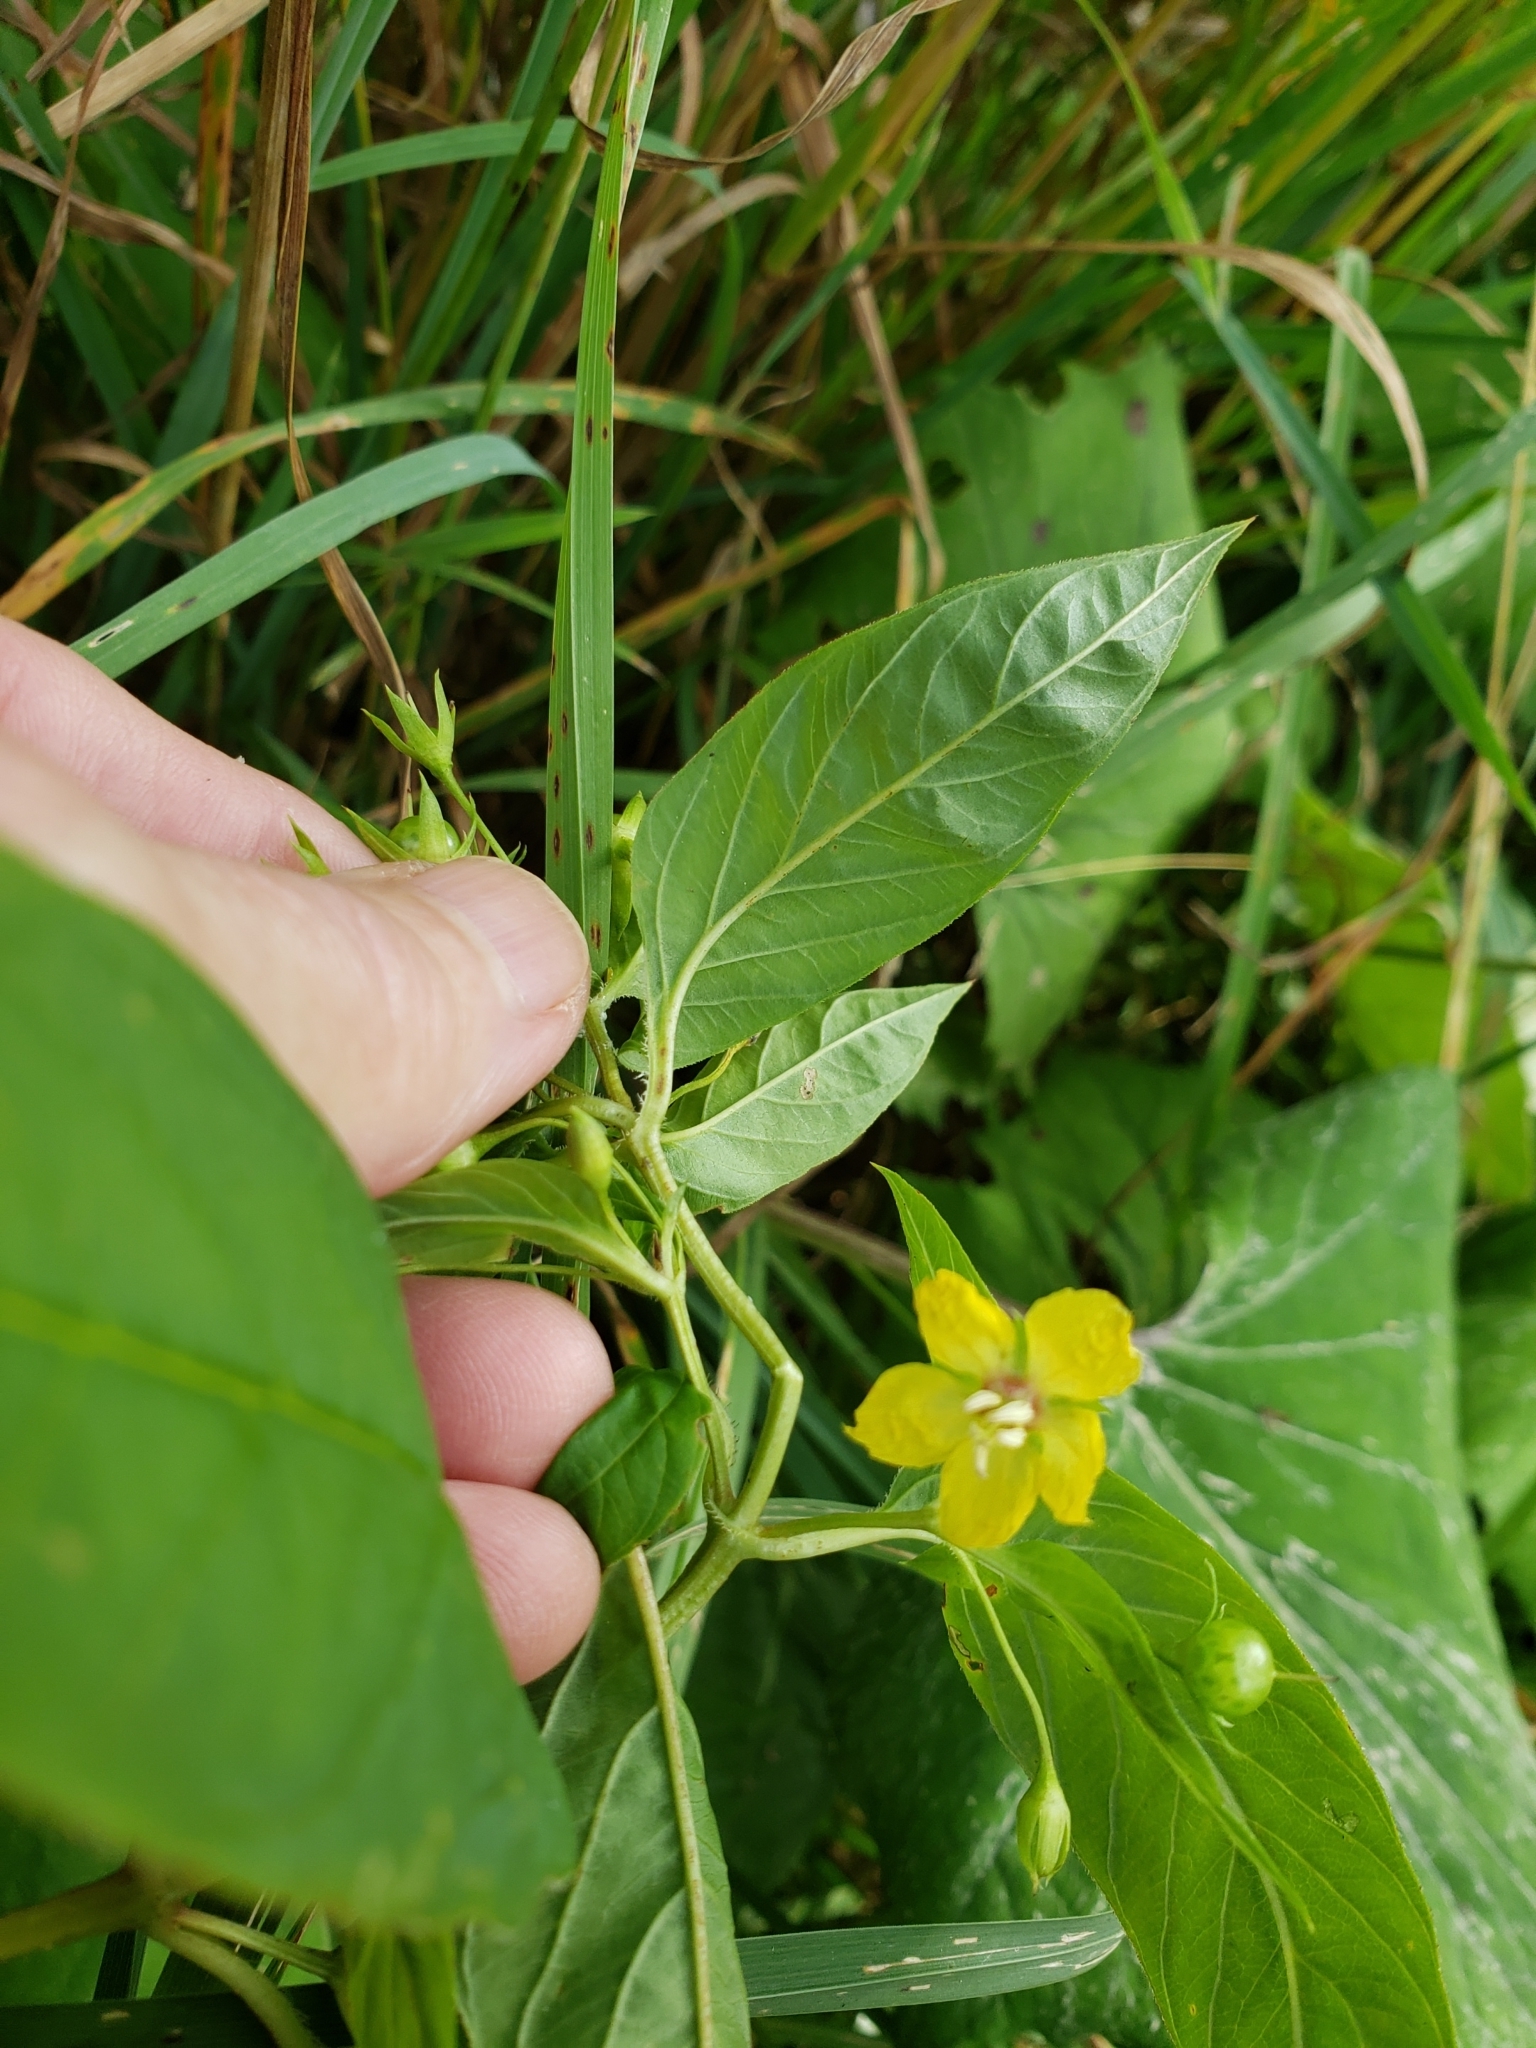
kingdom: Plantae
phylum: Tracheophyta
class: Magnoliopsida
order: Ericales
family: Primulaceae
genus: Lysimachia
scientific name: Lysimachia ciliata
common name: Fringed loosestrife
